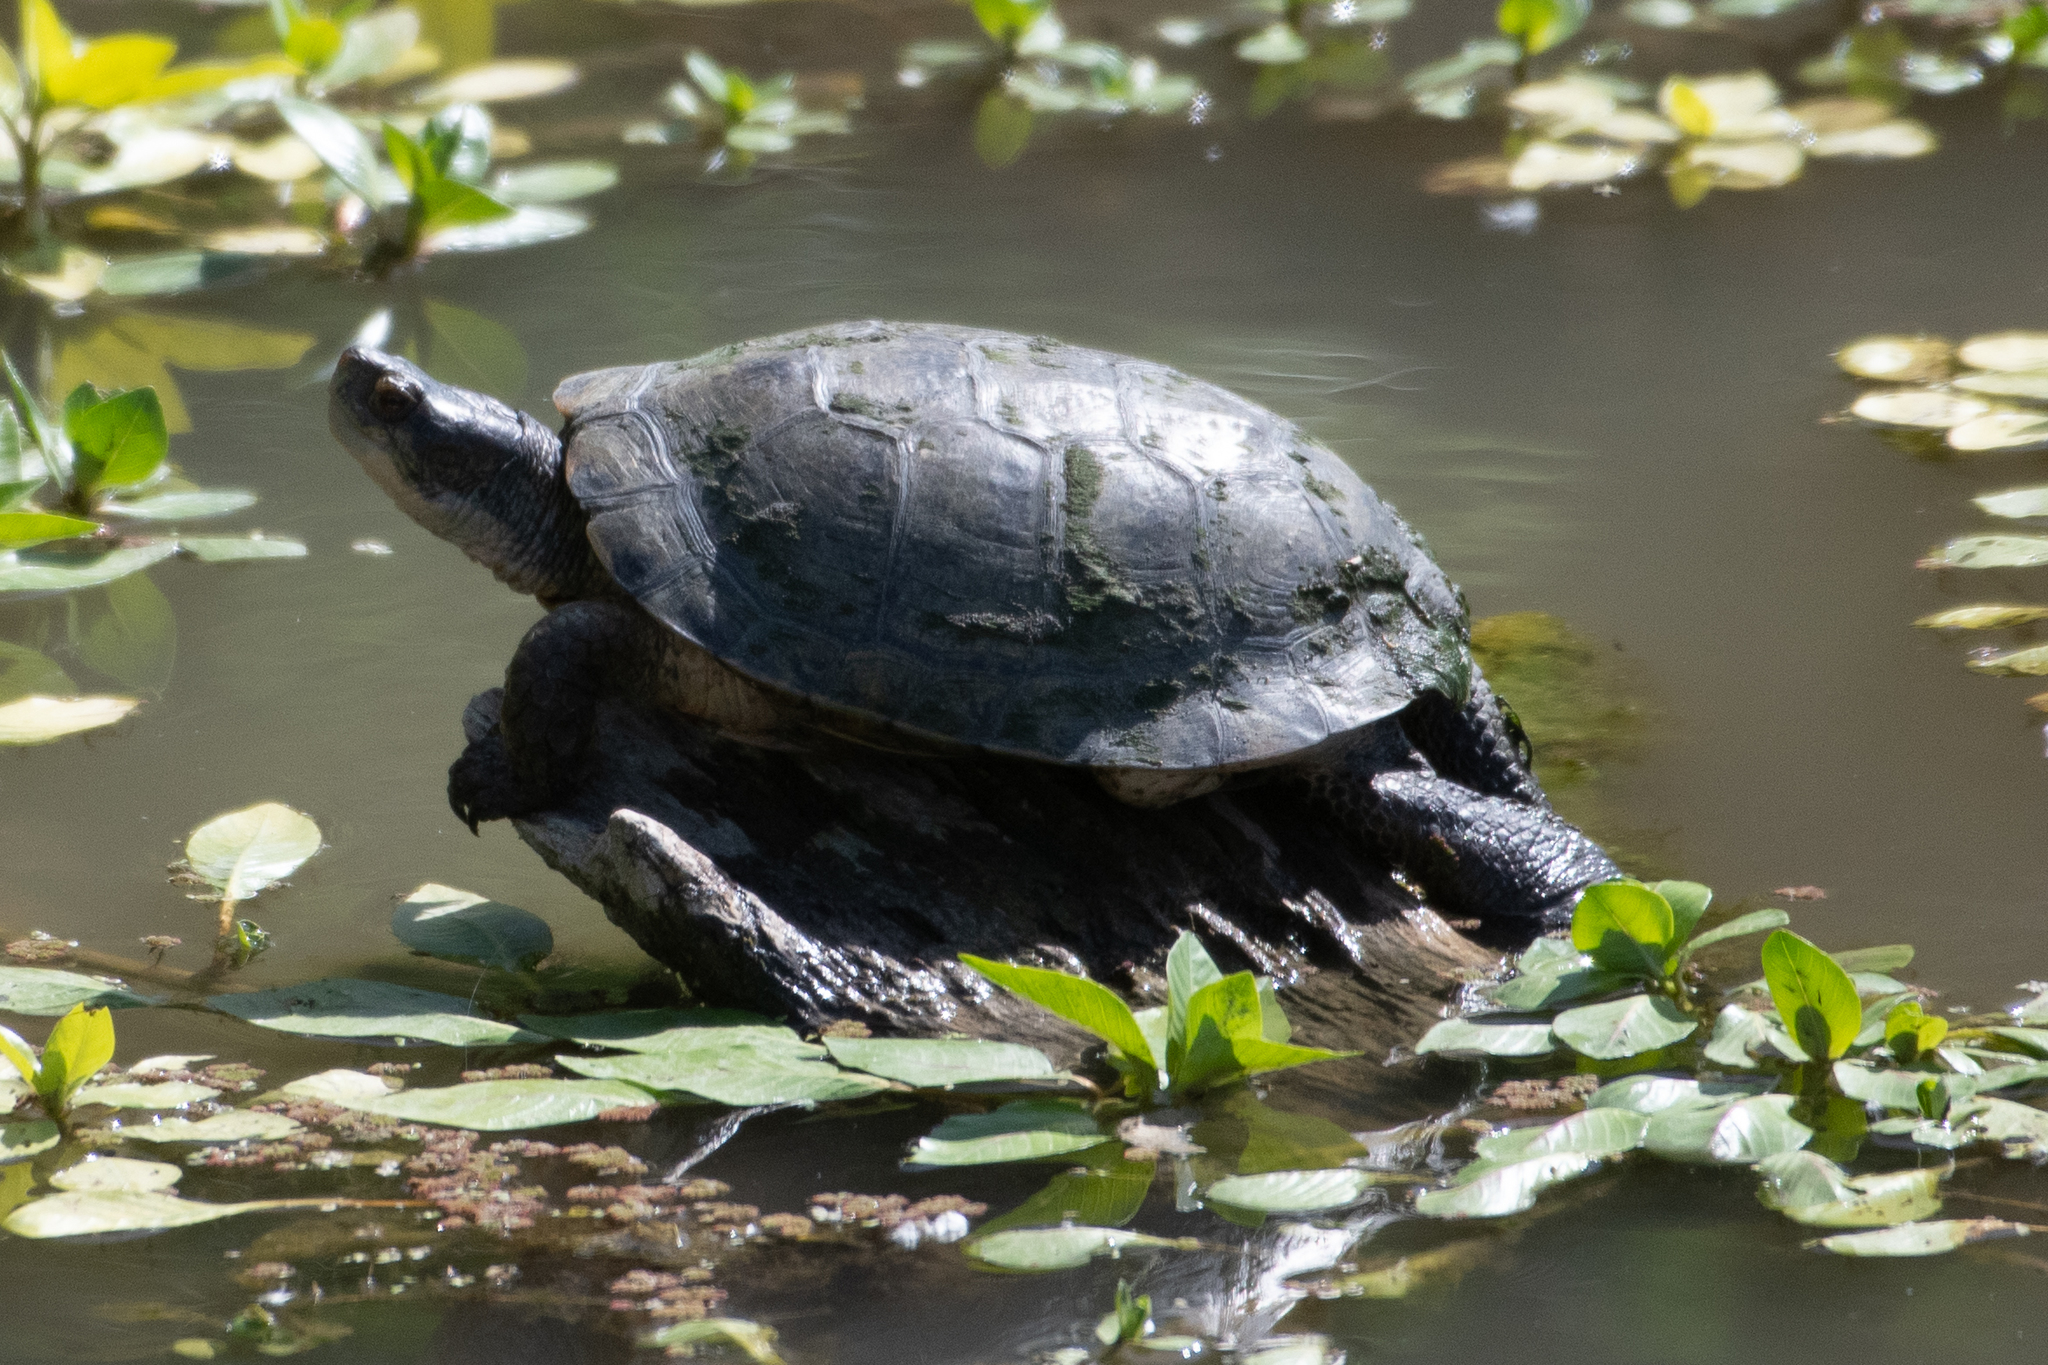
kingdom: Animalia
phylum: Chordata
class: Testudines
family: Emydidae
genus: Actinemys
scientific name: Actinemys marmorata
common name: Western pond turtle
